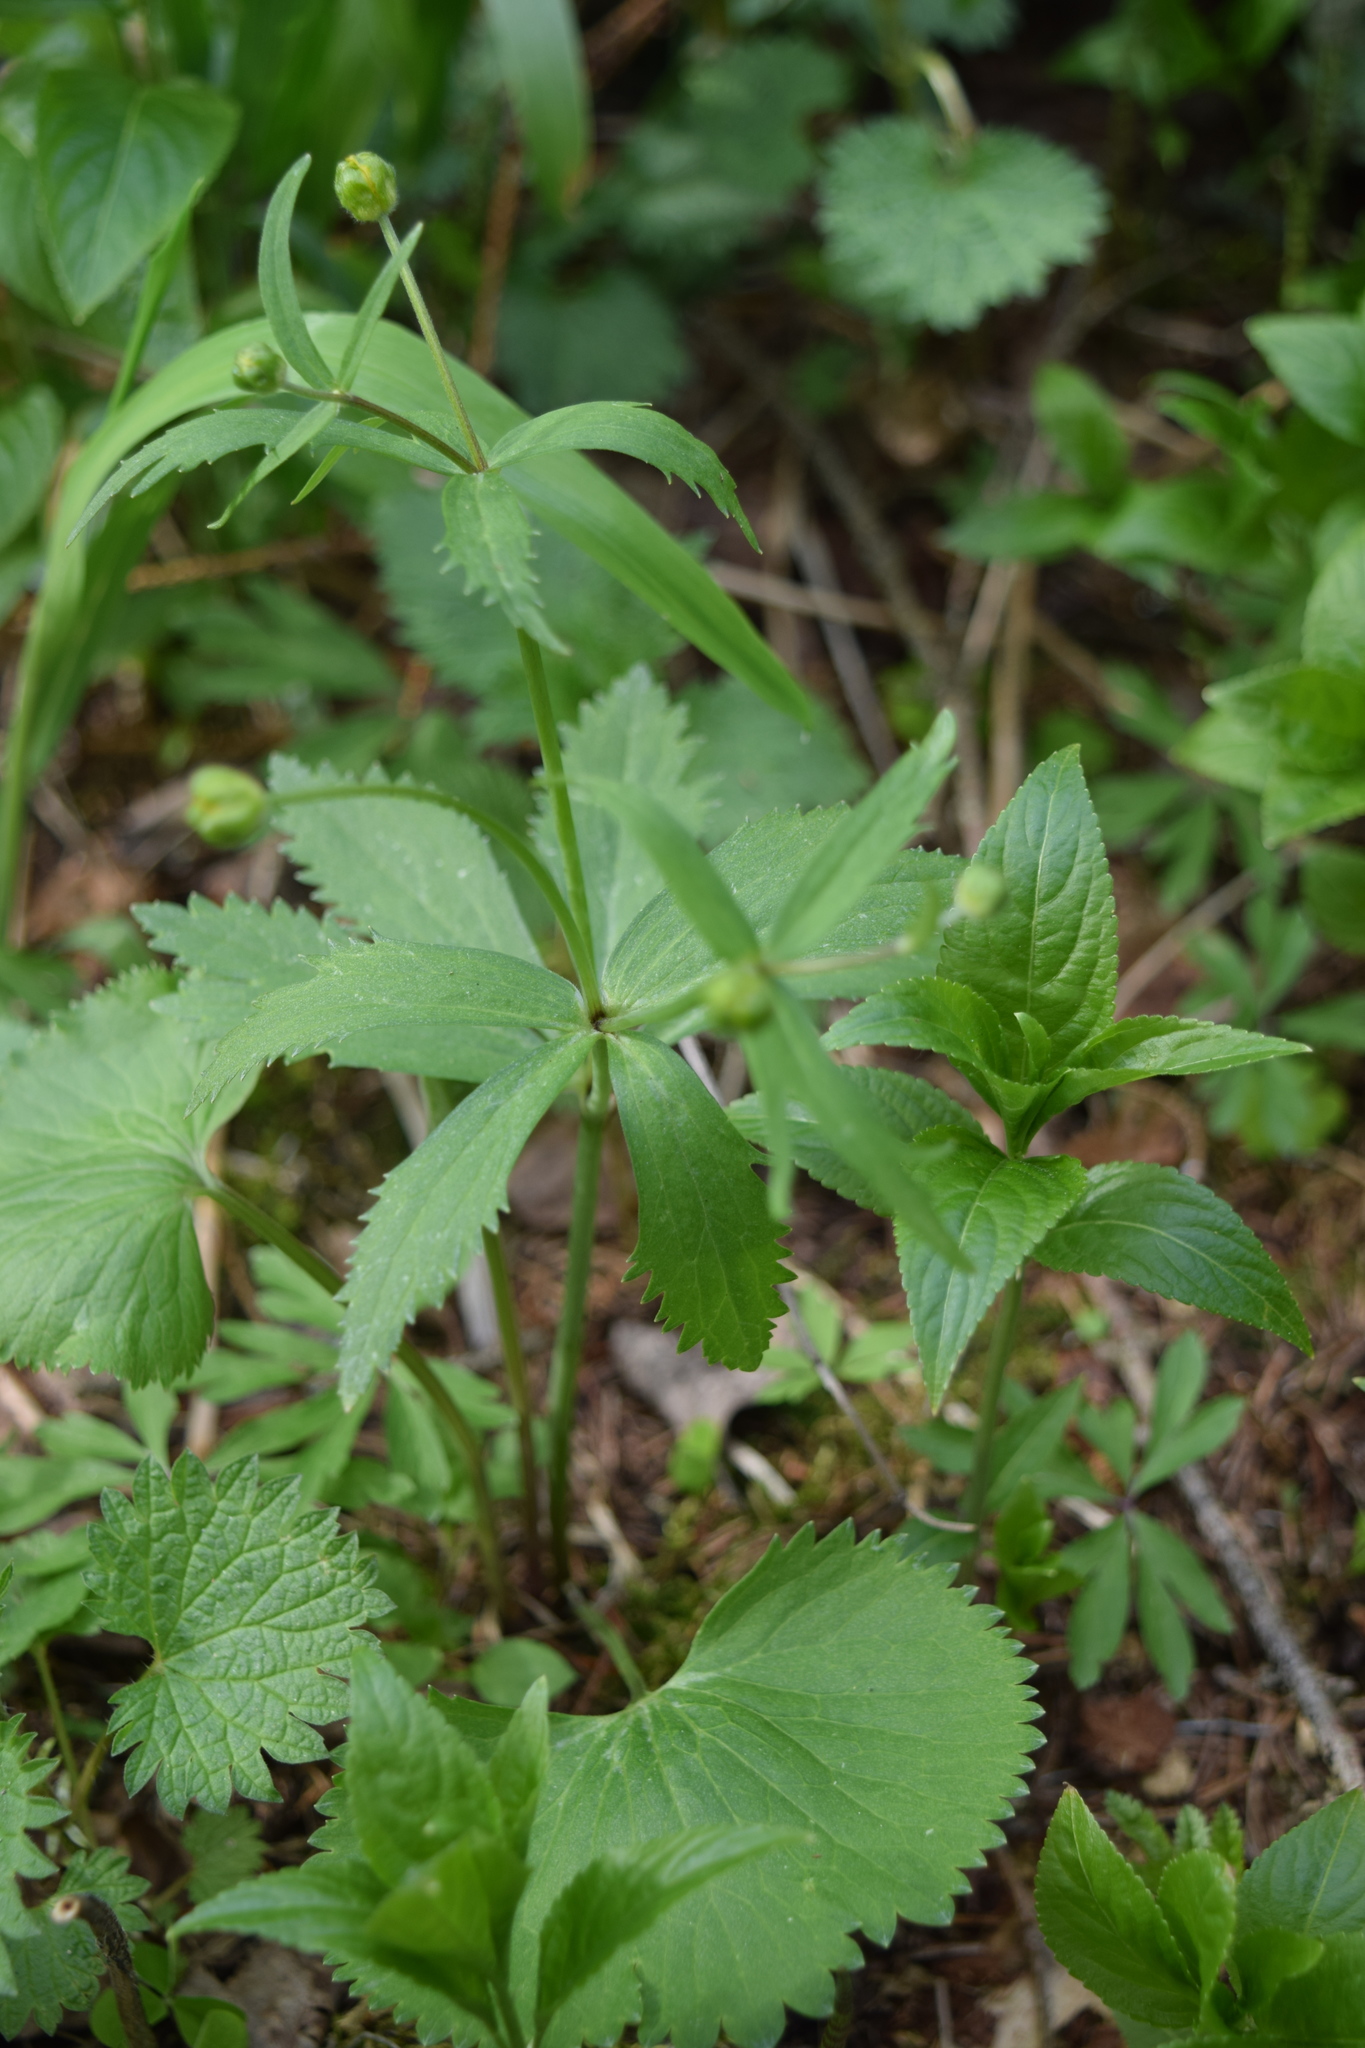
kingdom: Plantae
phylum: Tracheophyta
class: Magnoliopsida
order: Ranunculales
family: Ranunculaceae
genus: Ranunculus
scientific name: Ranunculus cassubicus
